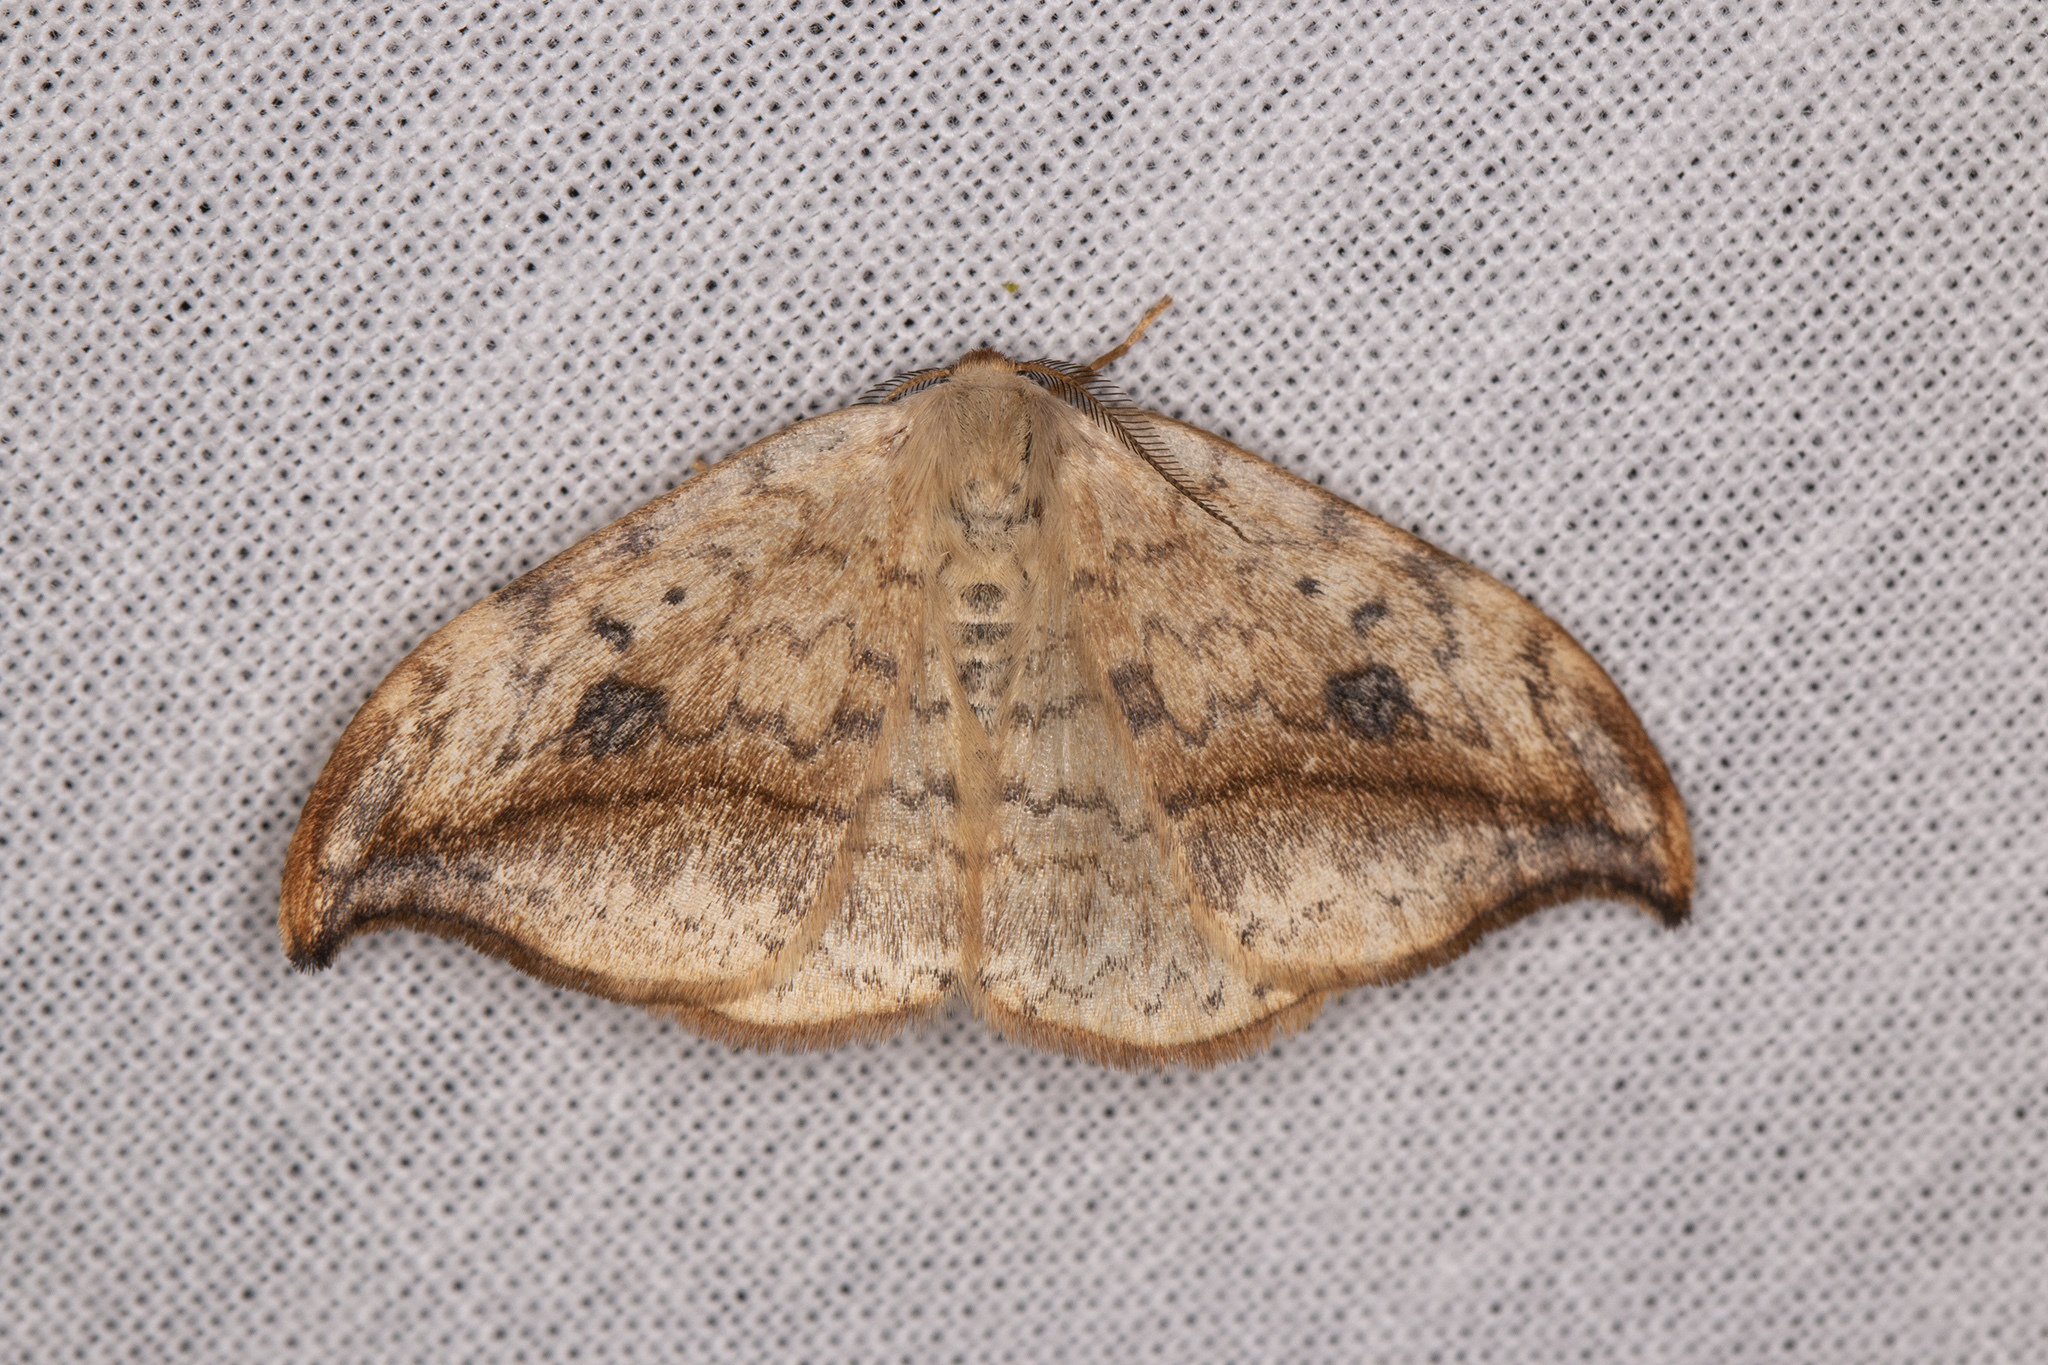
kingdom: Animalia
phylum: Arthropoda
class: Insecta
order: Lepidoptera
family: Drepanidae
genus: Drepana
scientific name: Drepana falcataria
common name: Pebble hook-tip
